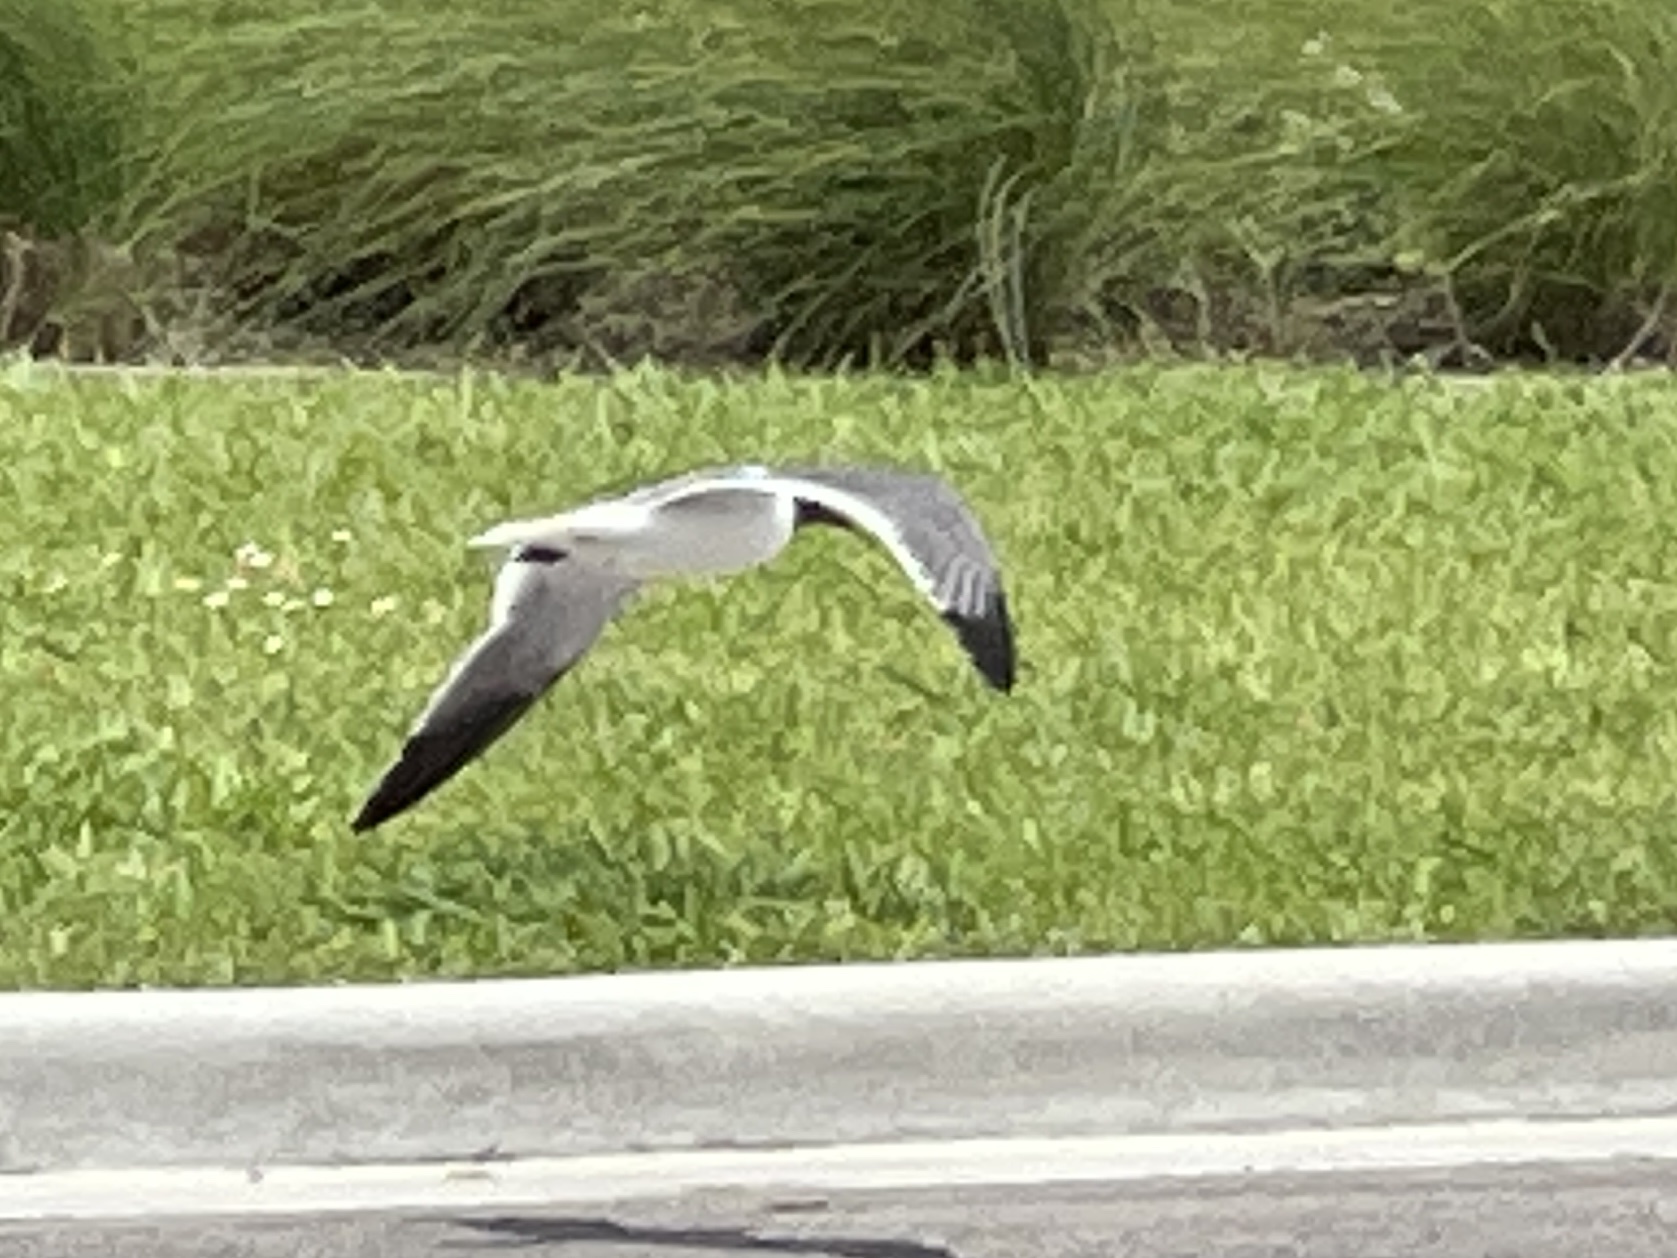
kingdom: Animalia
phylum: Chordata
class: Aves
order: Charadriiformes
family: Laridae
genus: Leucophaeus
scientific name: Leucophaeus atricilla
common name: Laughing gull
